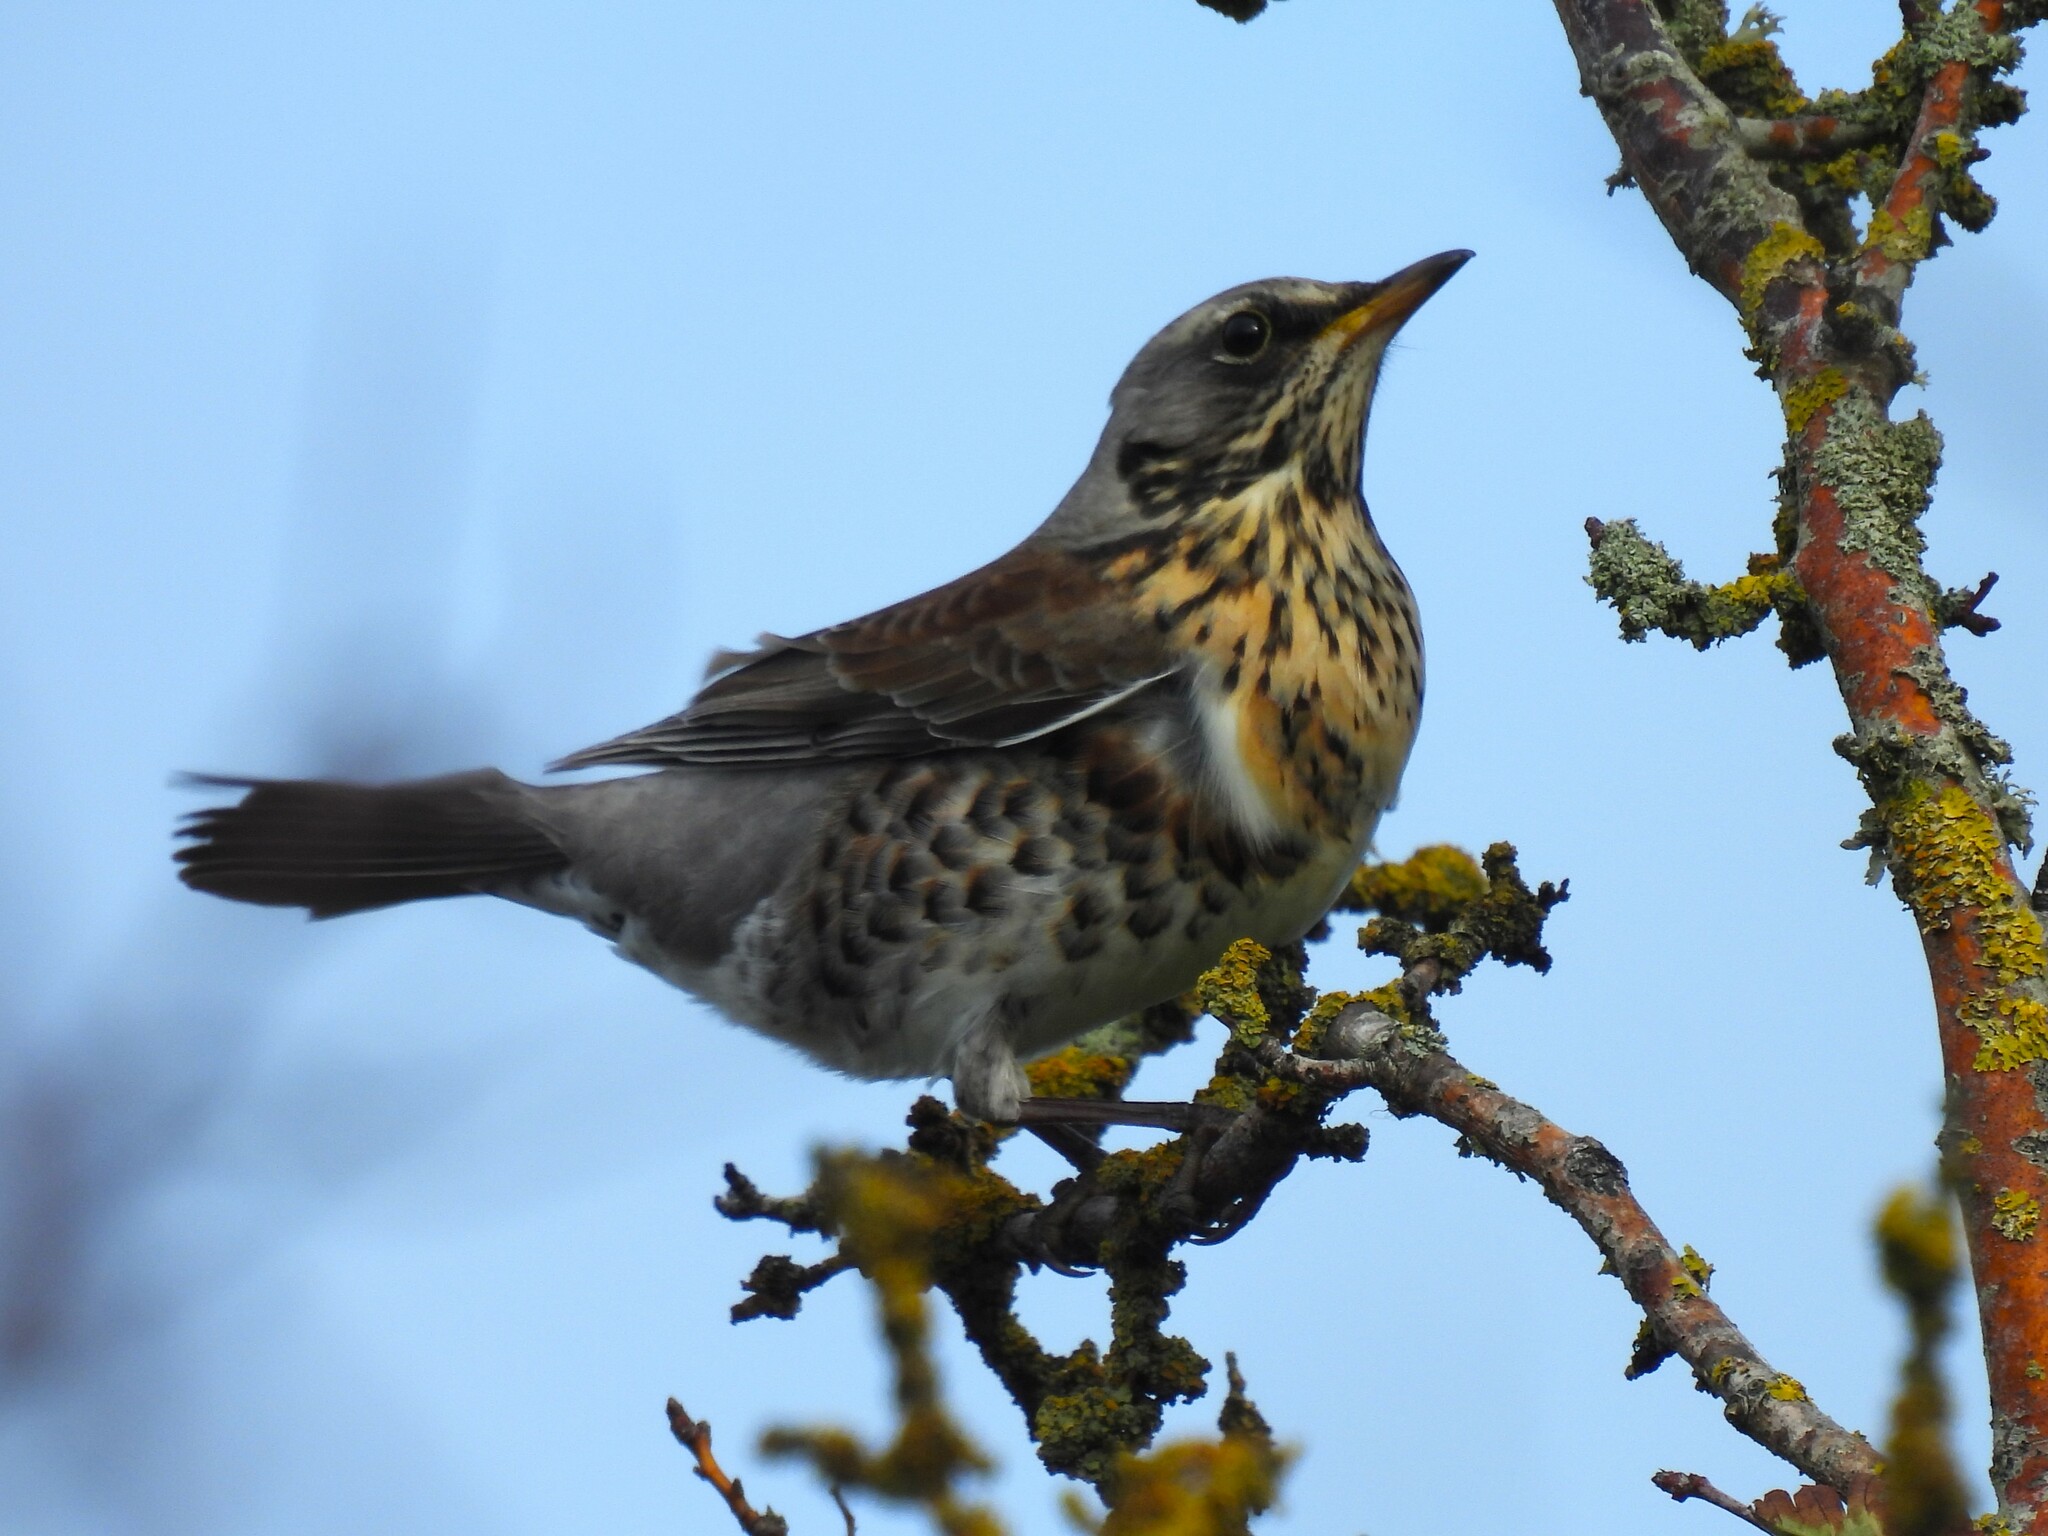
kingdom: Animalia
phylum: Chordata
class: Aves
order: Passeriformes
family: Turdidae
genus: Turdus
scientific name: Turdus pilaris
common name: Fieldfare
